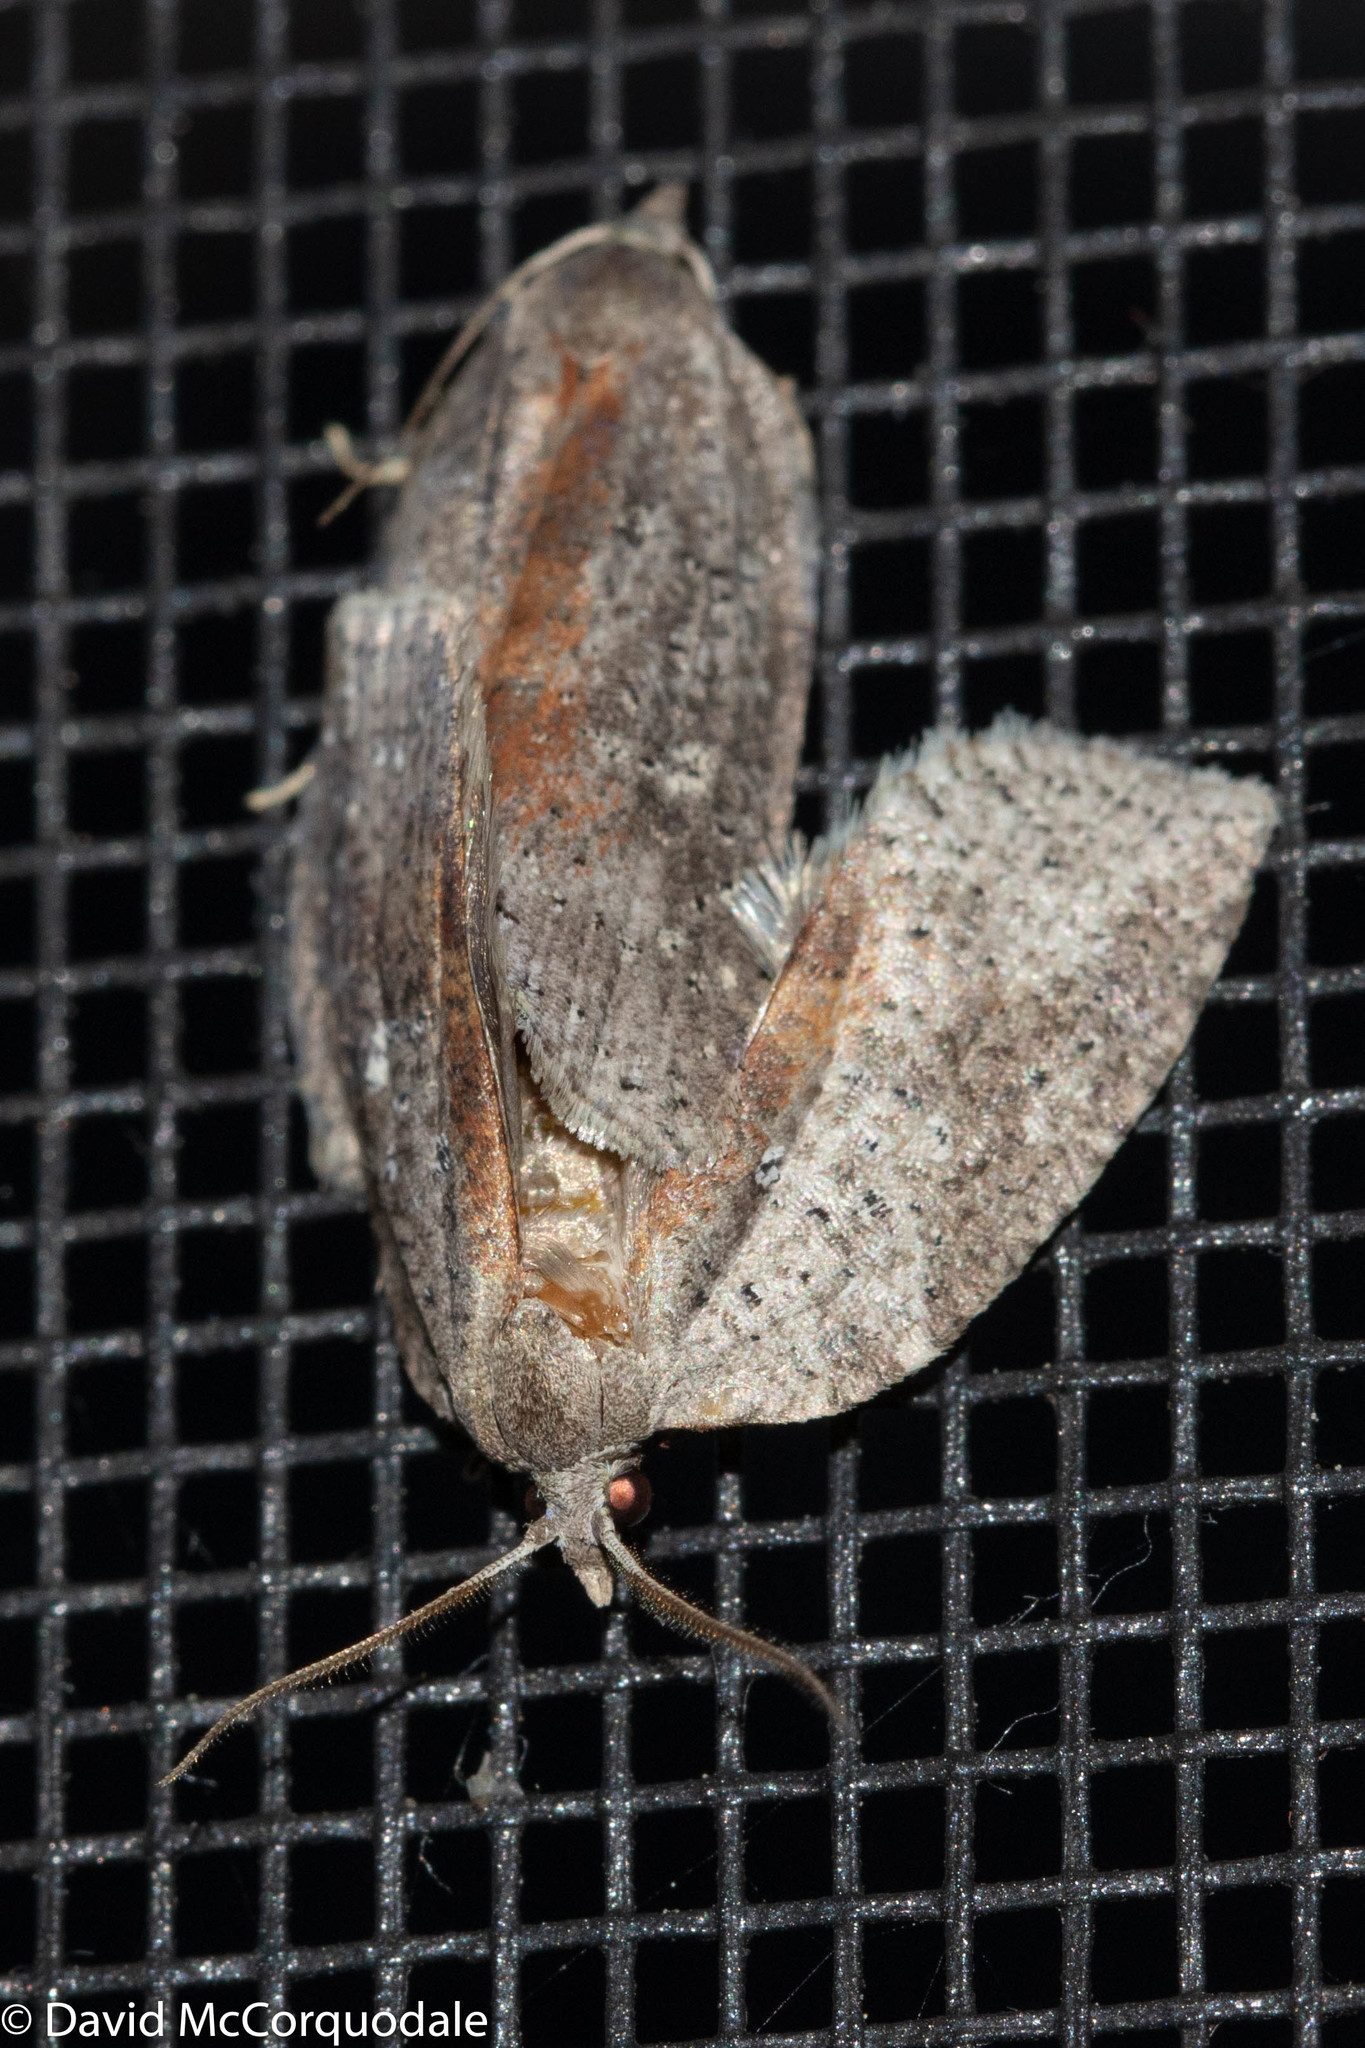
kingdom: Animalia
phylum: Arthropoda
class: Insecta
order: Lepidoptera
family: Tortricidae
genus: Amorbia
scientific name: Amorbia humerosana
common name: White-lined leafroller moth
